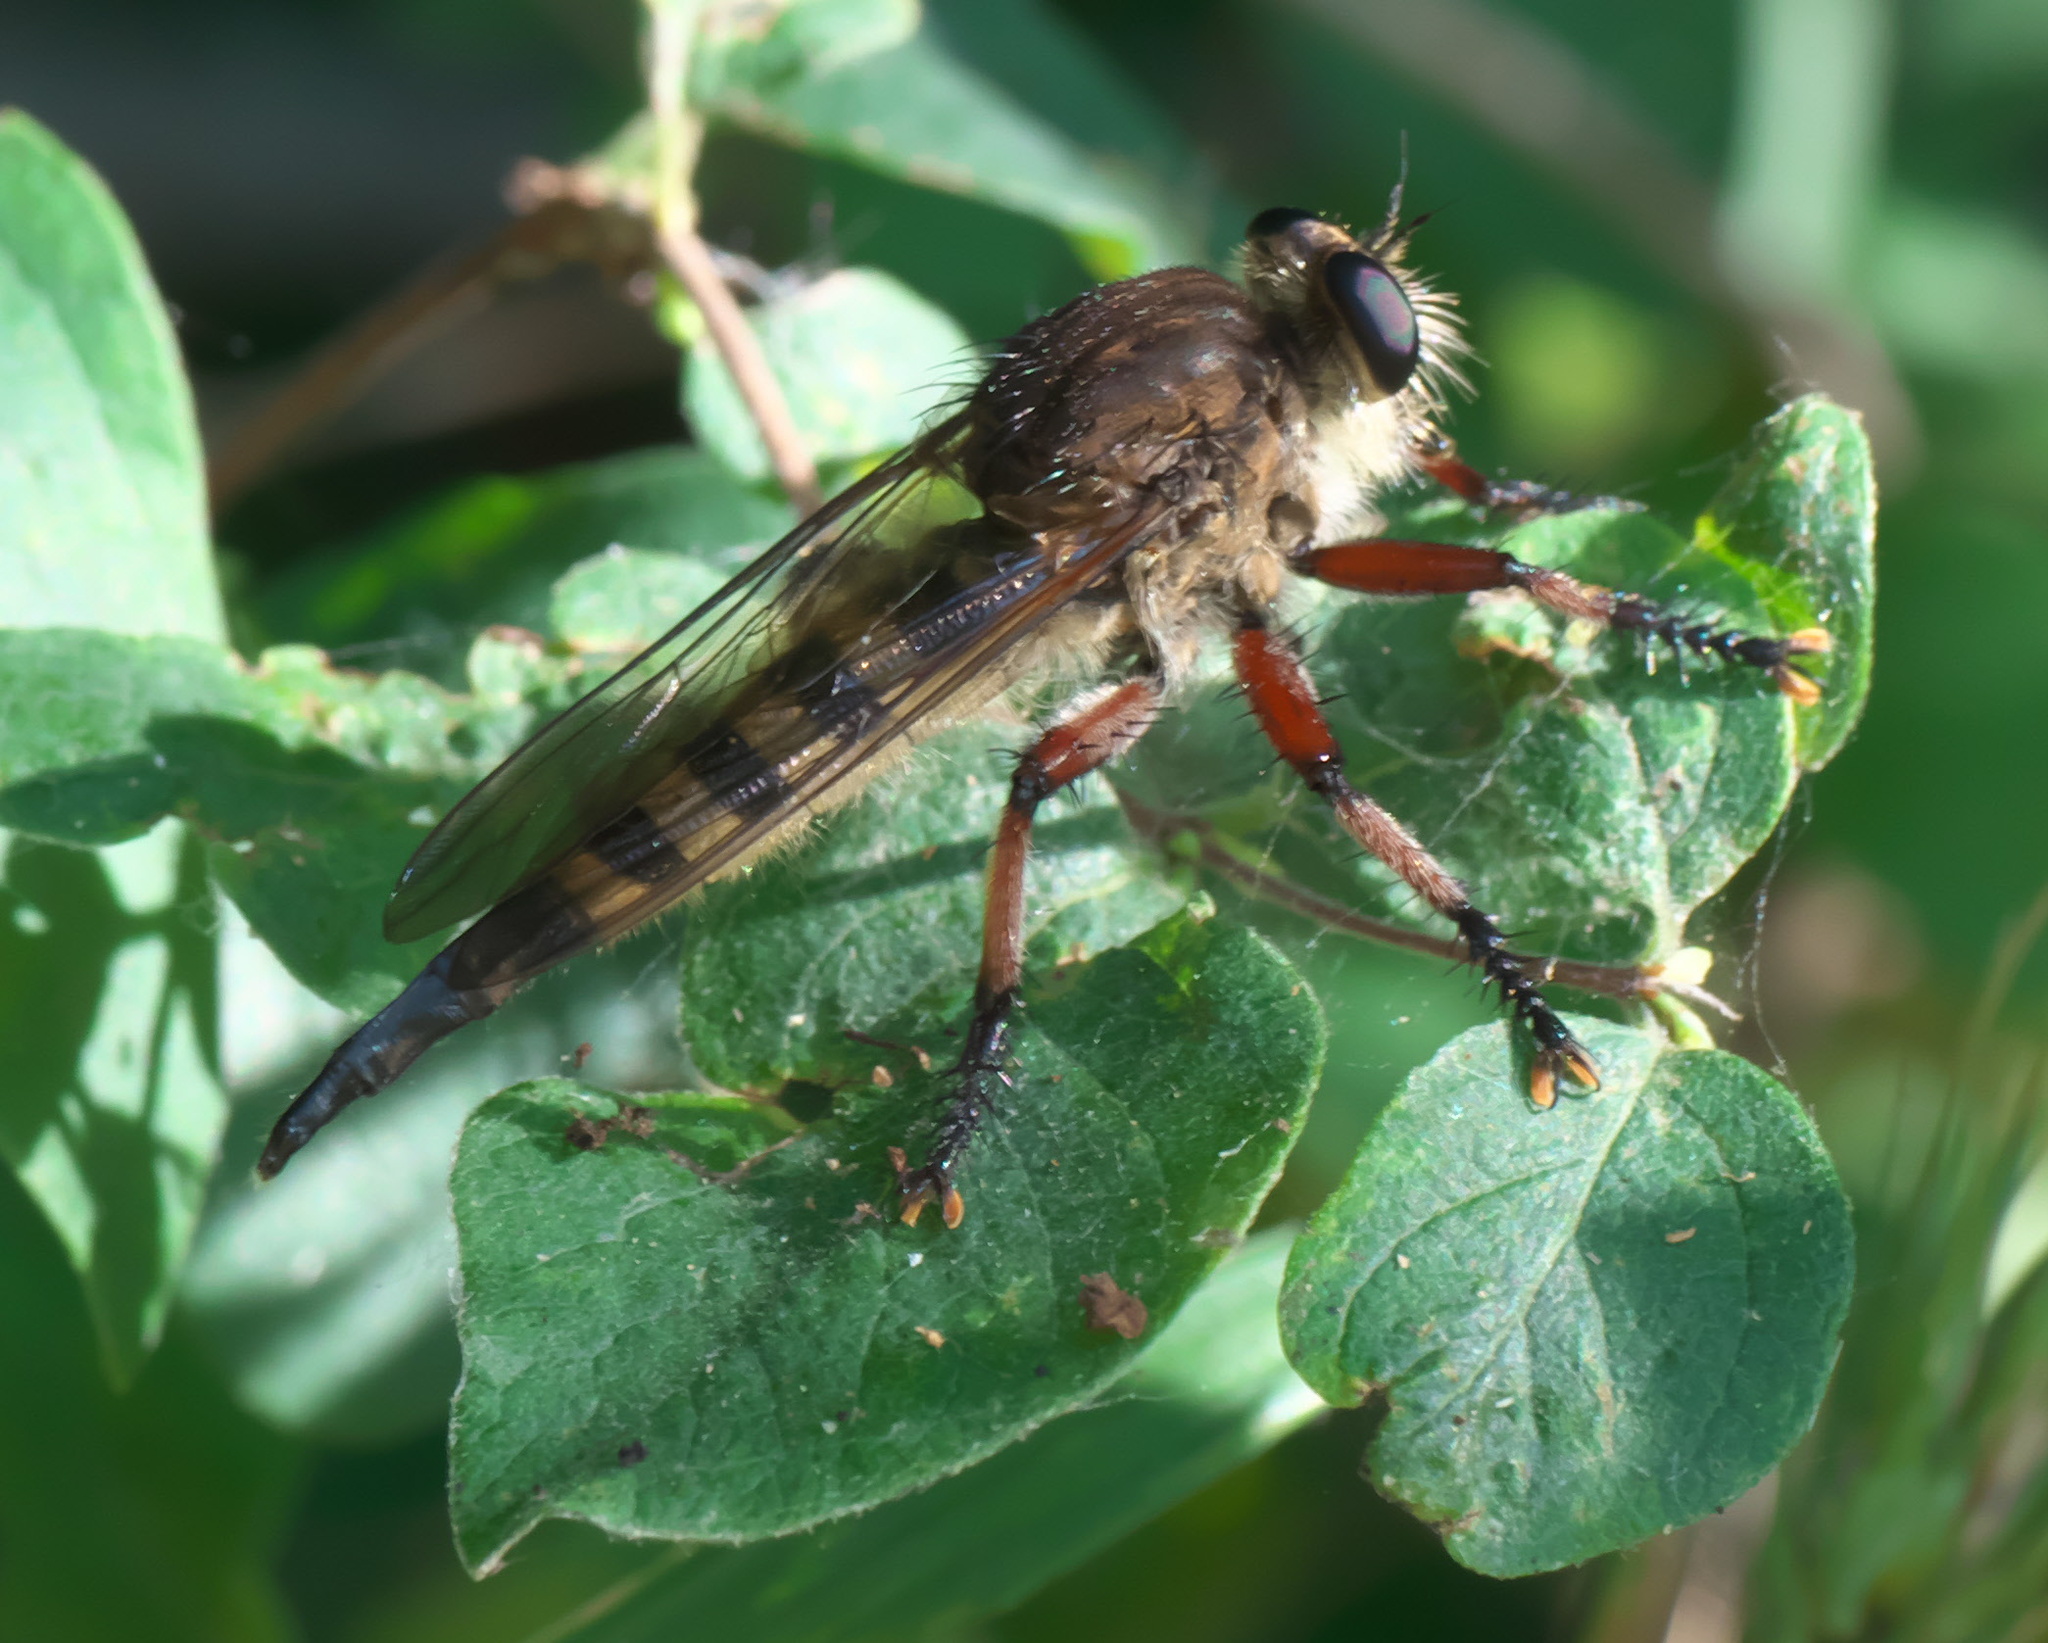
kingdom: Animalia
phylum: Arthropoda
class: Insecta
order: Diptera
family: Asilidae
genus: Promachus
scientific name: Promachus hinei
